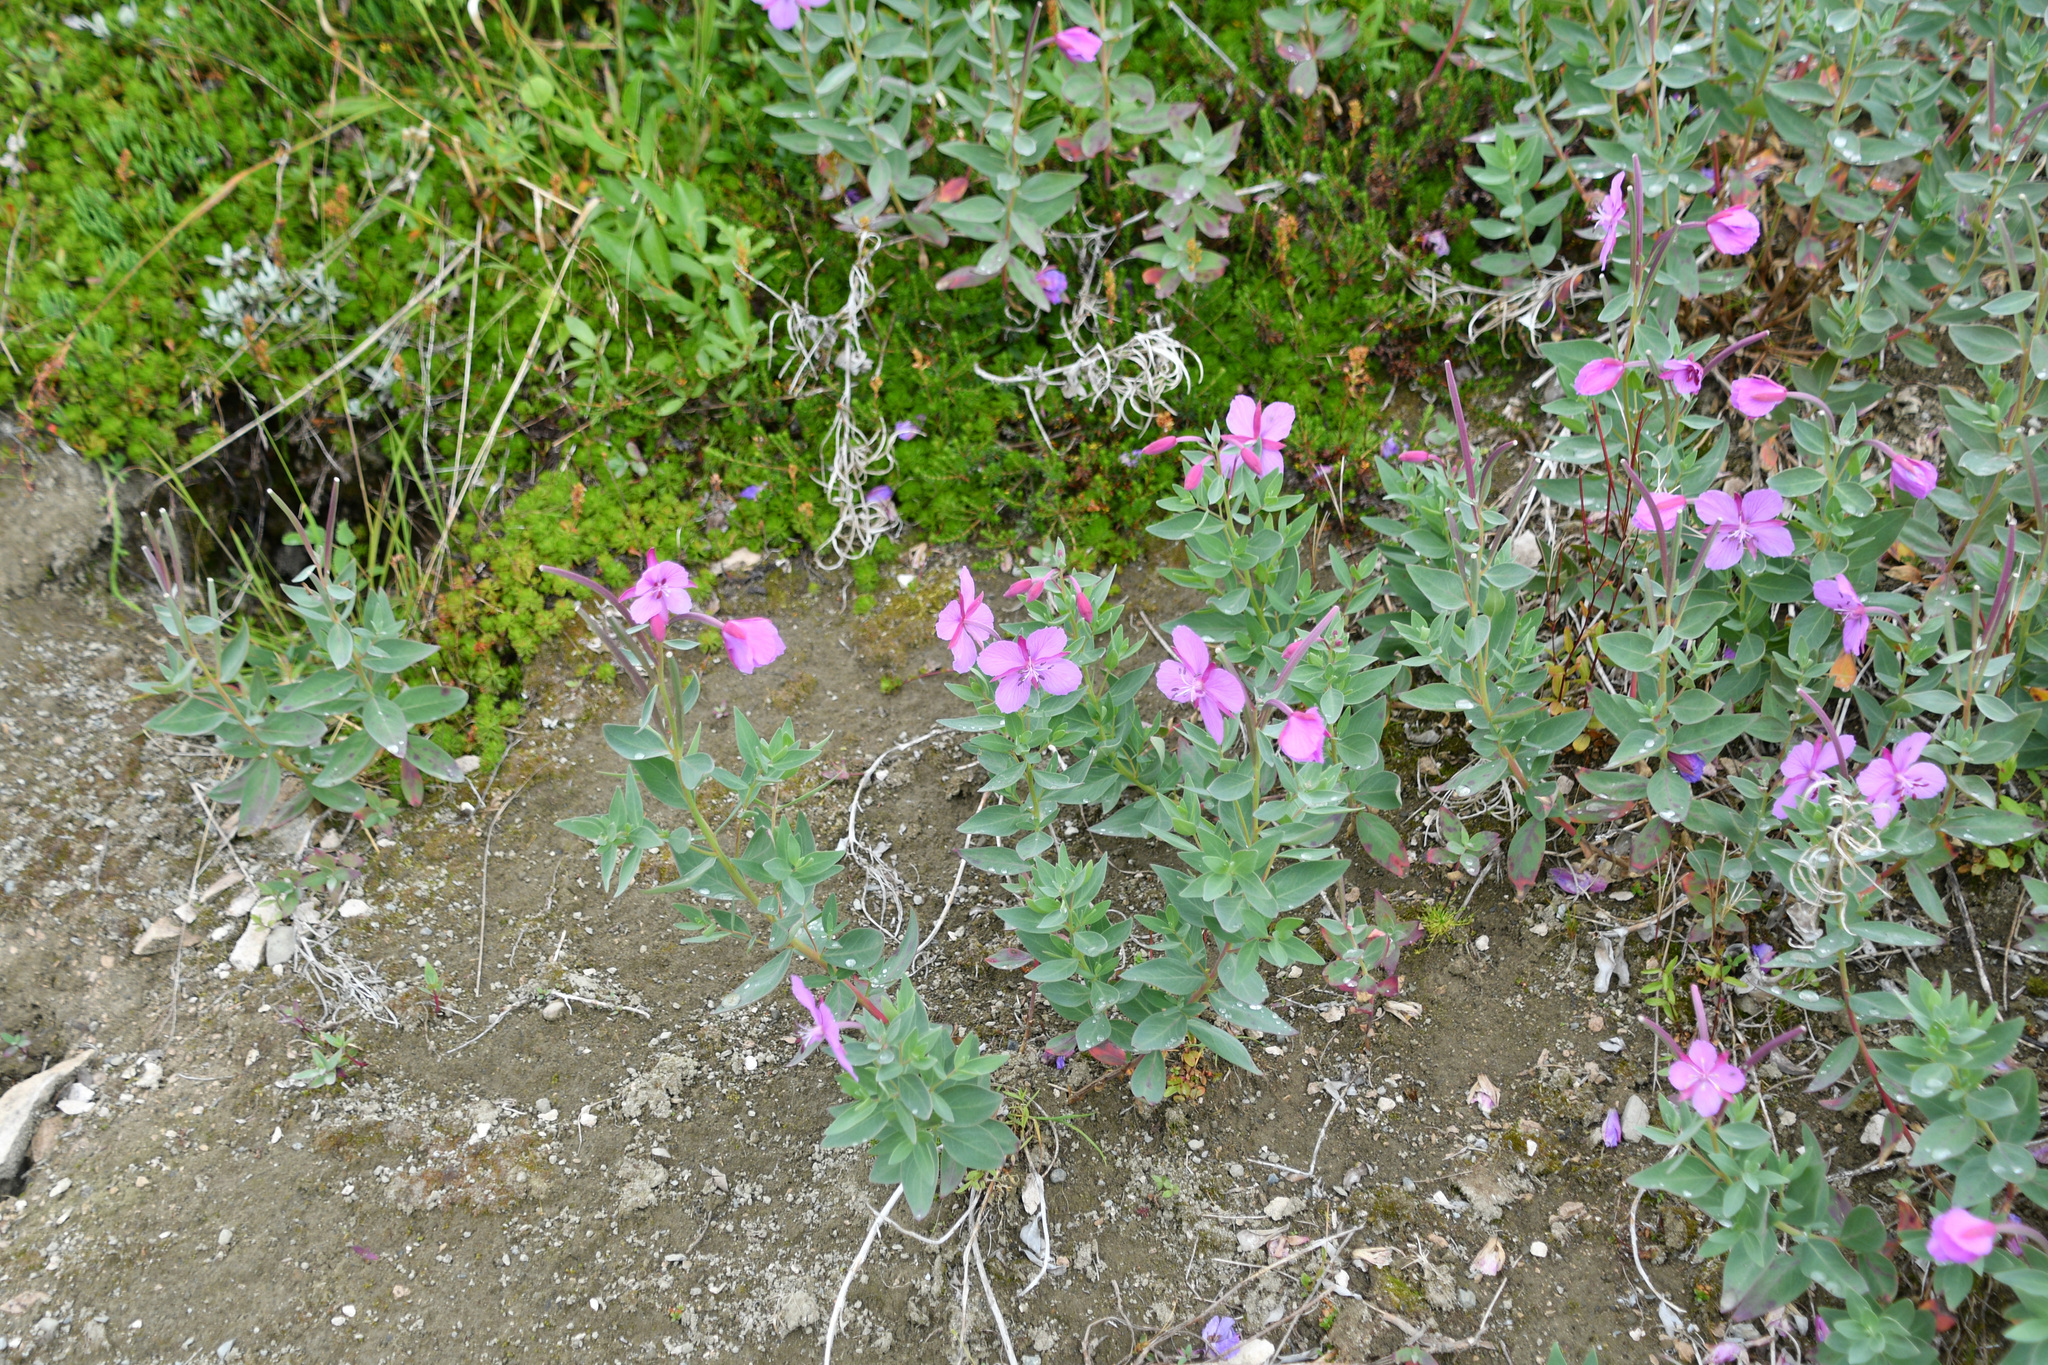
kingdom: Plantae
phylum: Tracheophyta
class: Magnoliopsida
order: Myrtales
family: Onagraceae
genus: Chamaenerion
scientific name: Chamaenerion latifolium
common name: Dwarf fireweed
